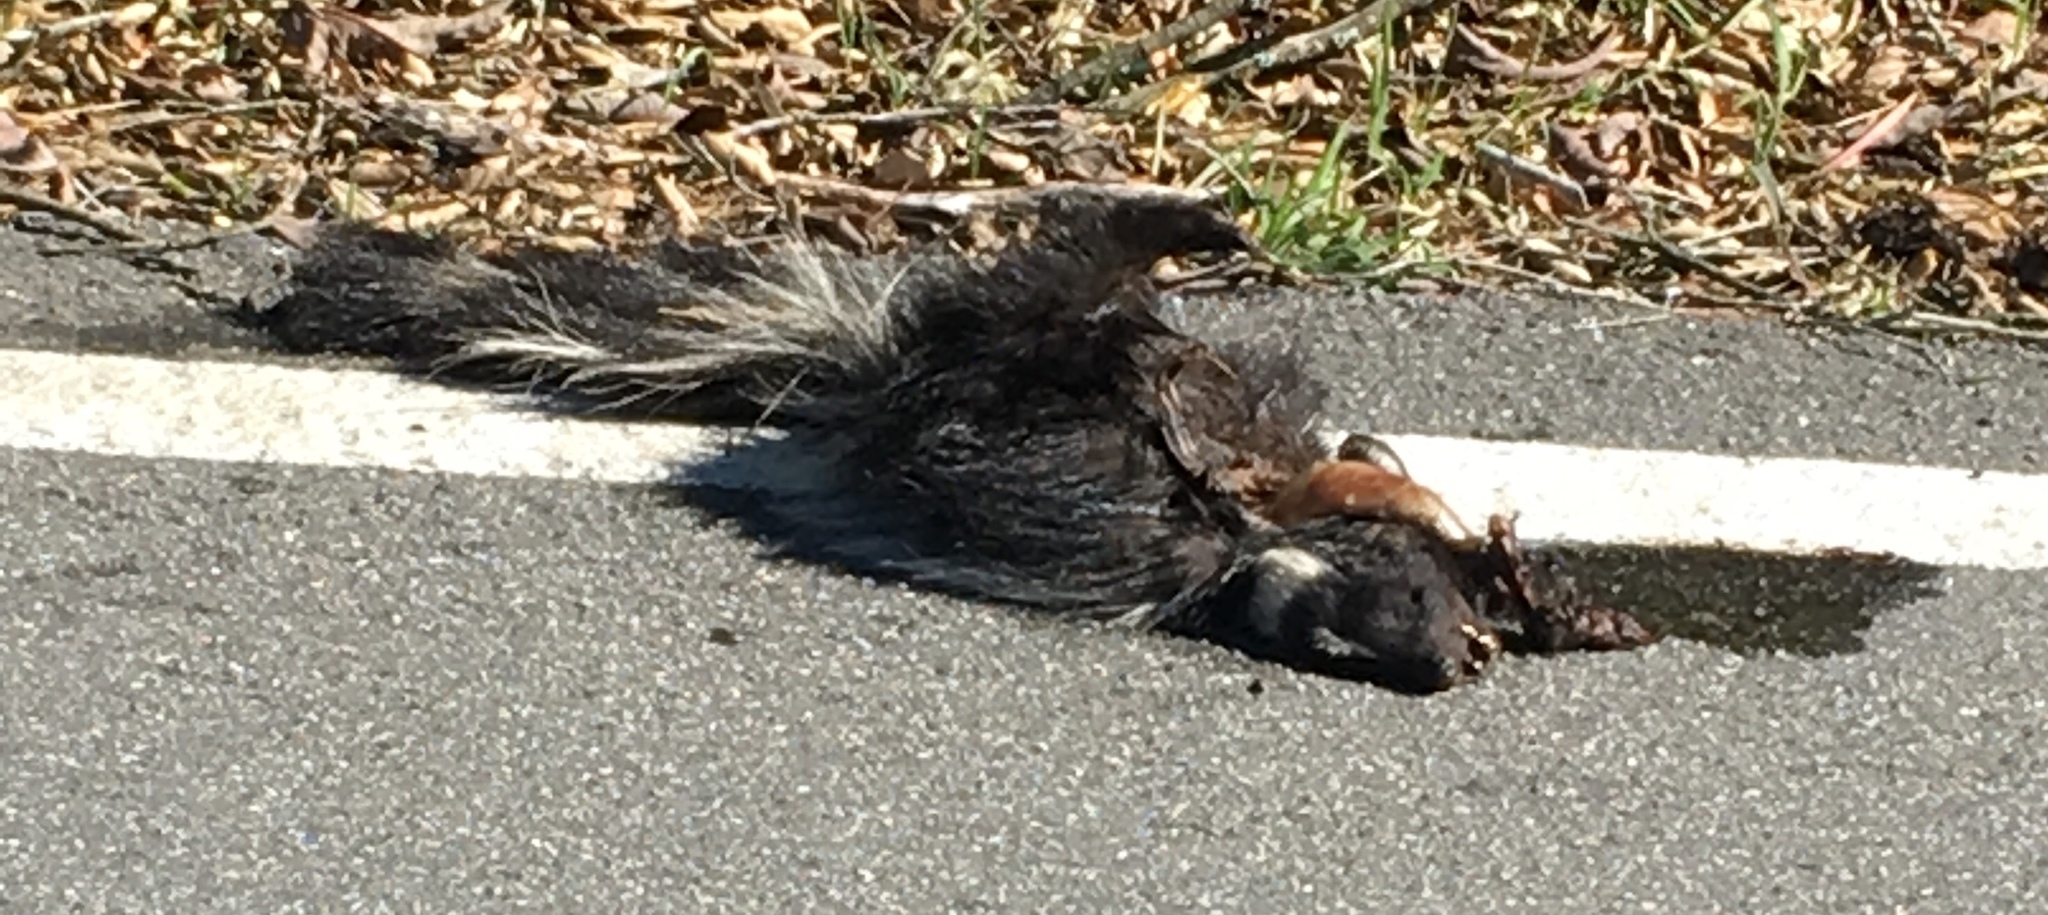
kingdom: Animalia
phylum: Chordata
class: Mammalia
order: Carnivora
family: Mephitidae
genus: Mephitis
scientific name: Mephitis mephitis
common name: Striped skunk
